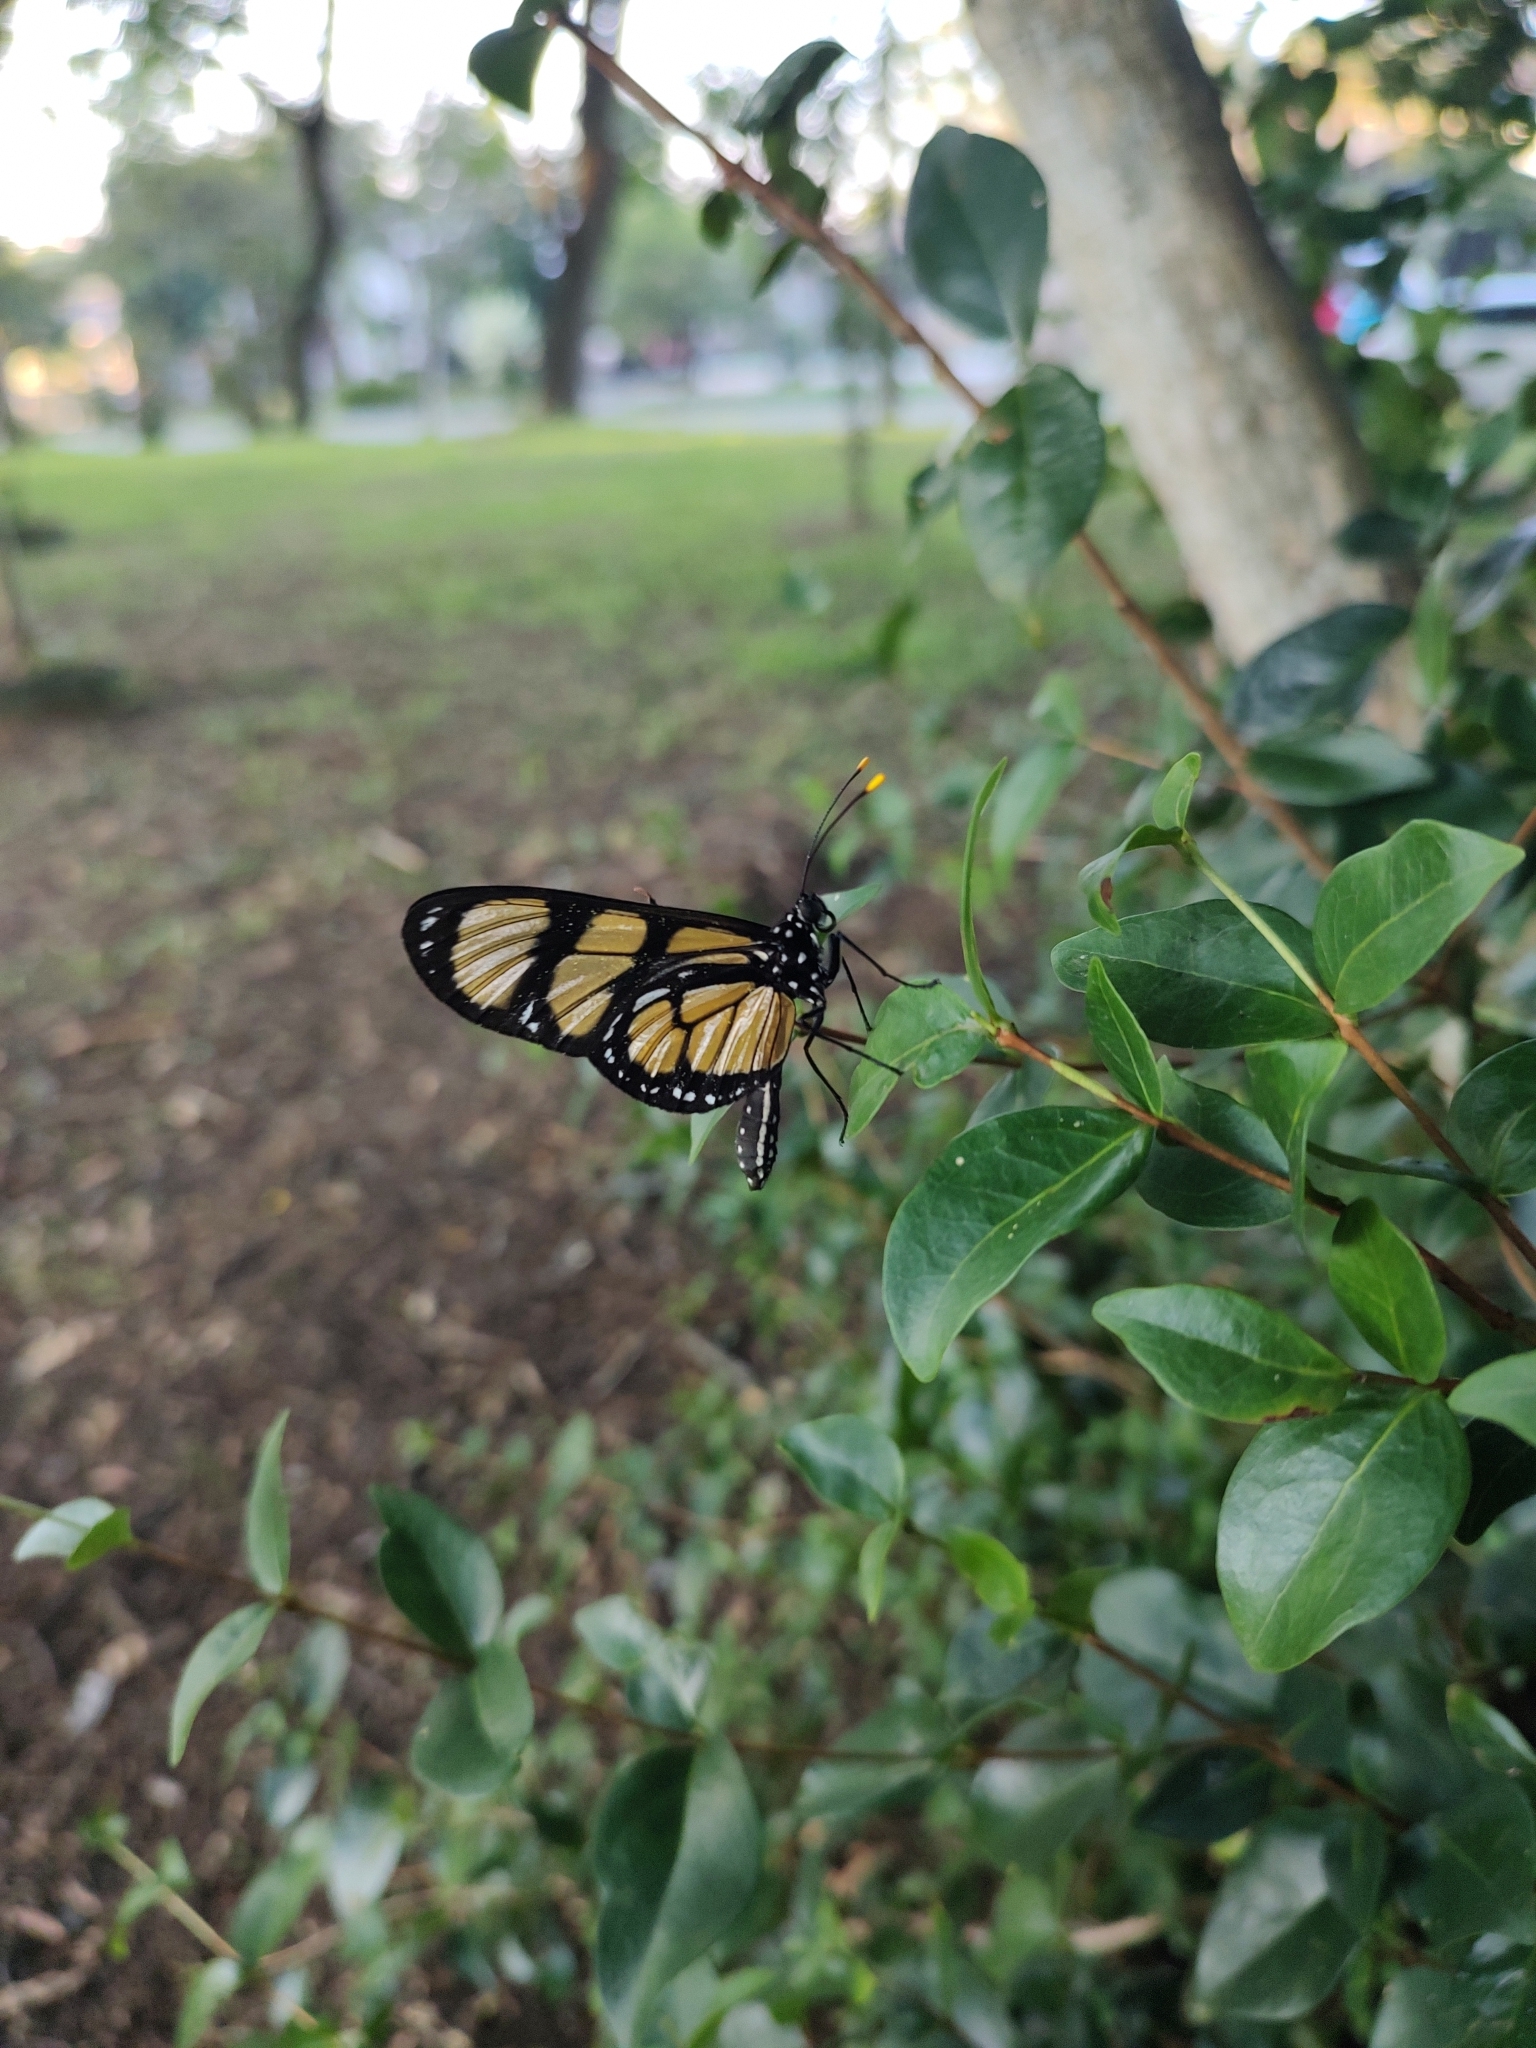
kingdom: Animalia
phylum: Arthropoda
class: Insecta
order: Lepidoptera
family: Nymphalidae
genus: Methona
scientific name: Methona themisto
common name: Themisto amberwing
